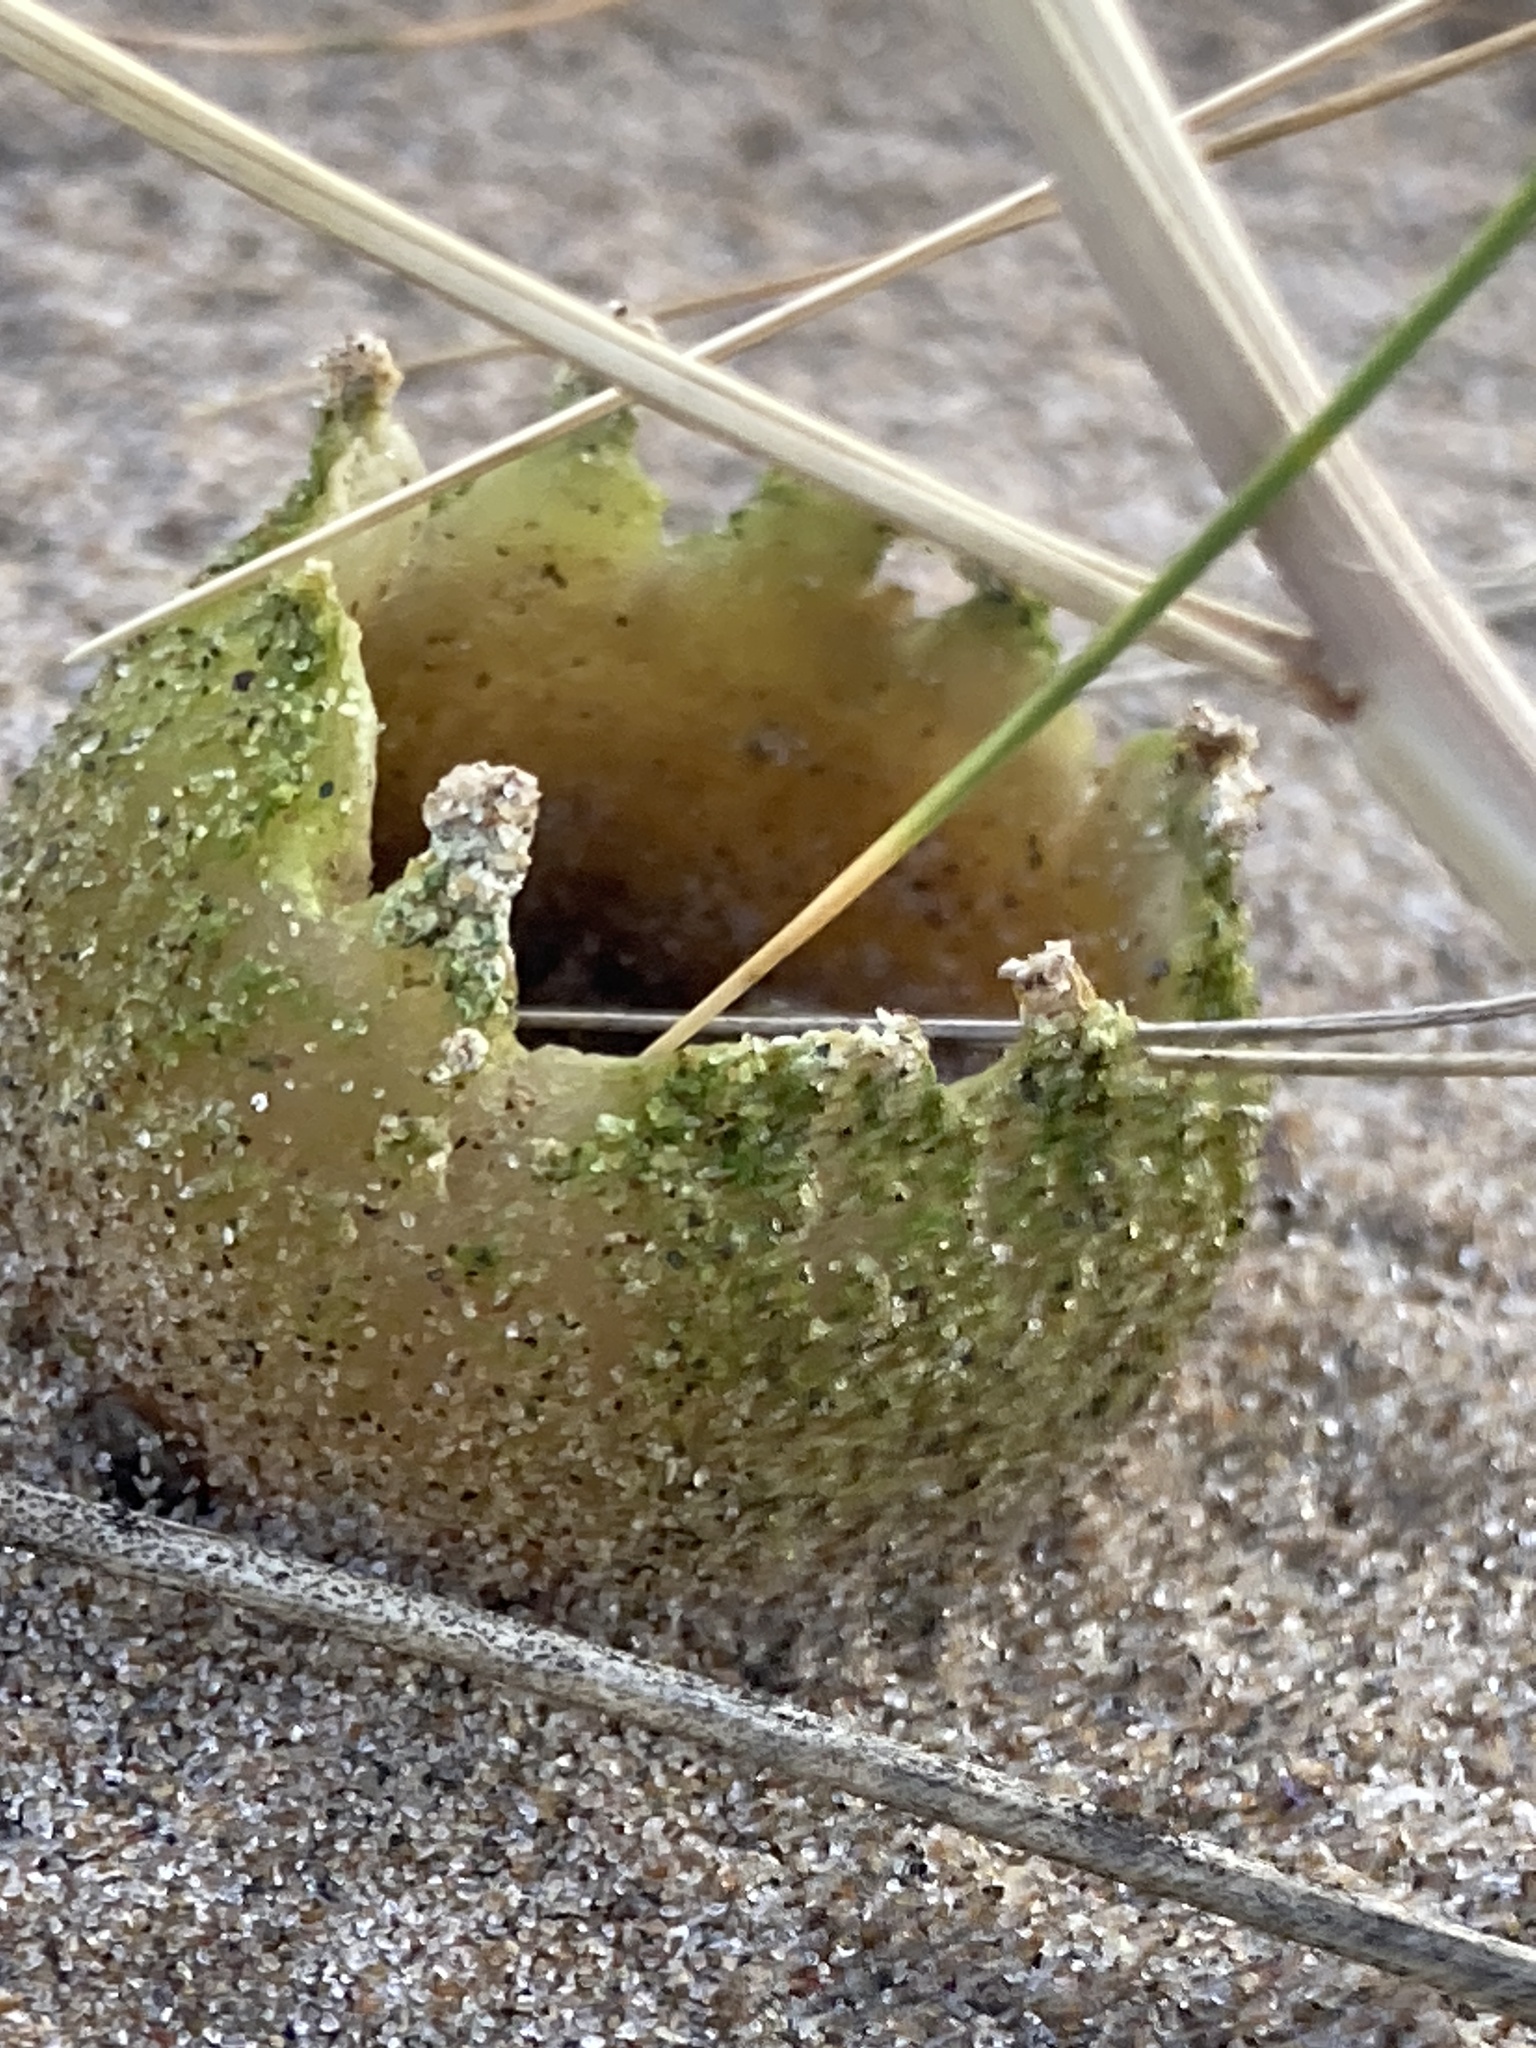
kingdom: Fungi
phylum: Ascomycota
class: Pezizomycetes
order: Pezizales
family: Pezizaceae
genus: Peziza
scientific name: Peziza ammophila
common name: Dune cup
